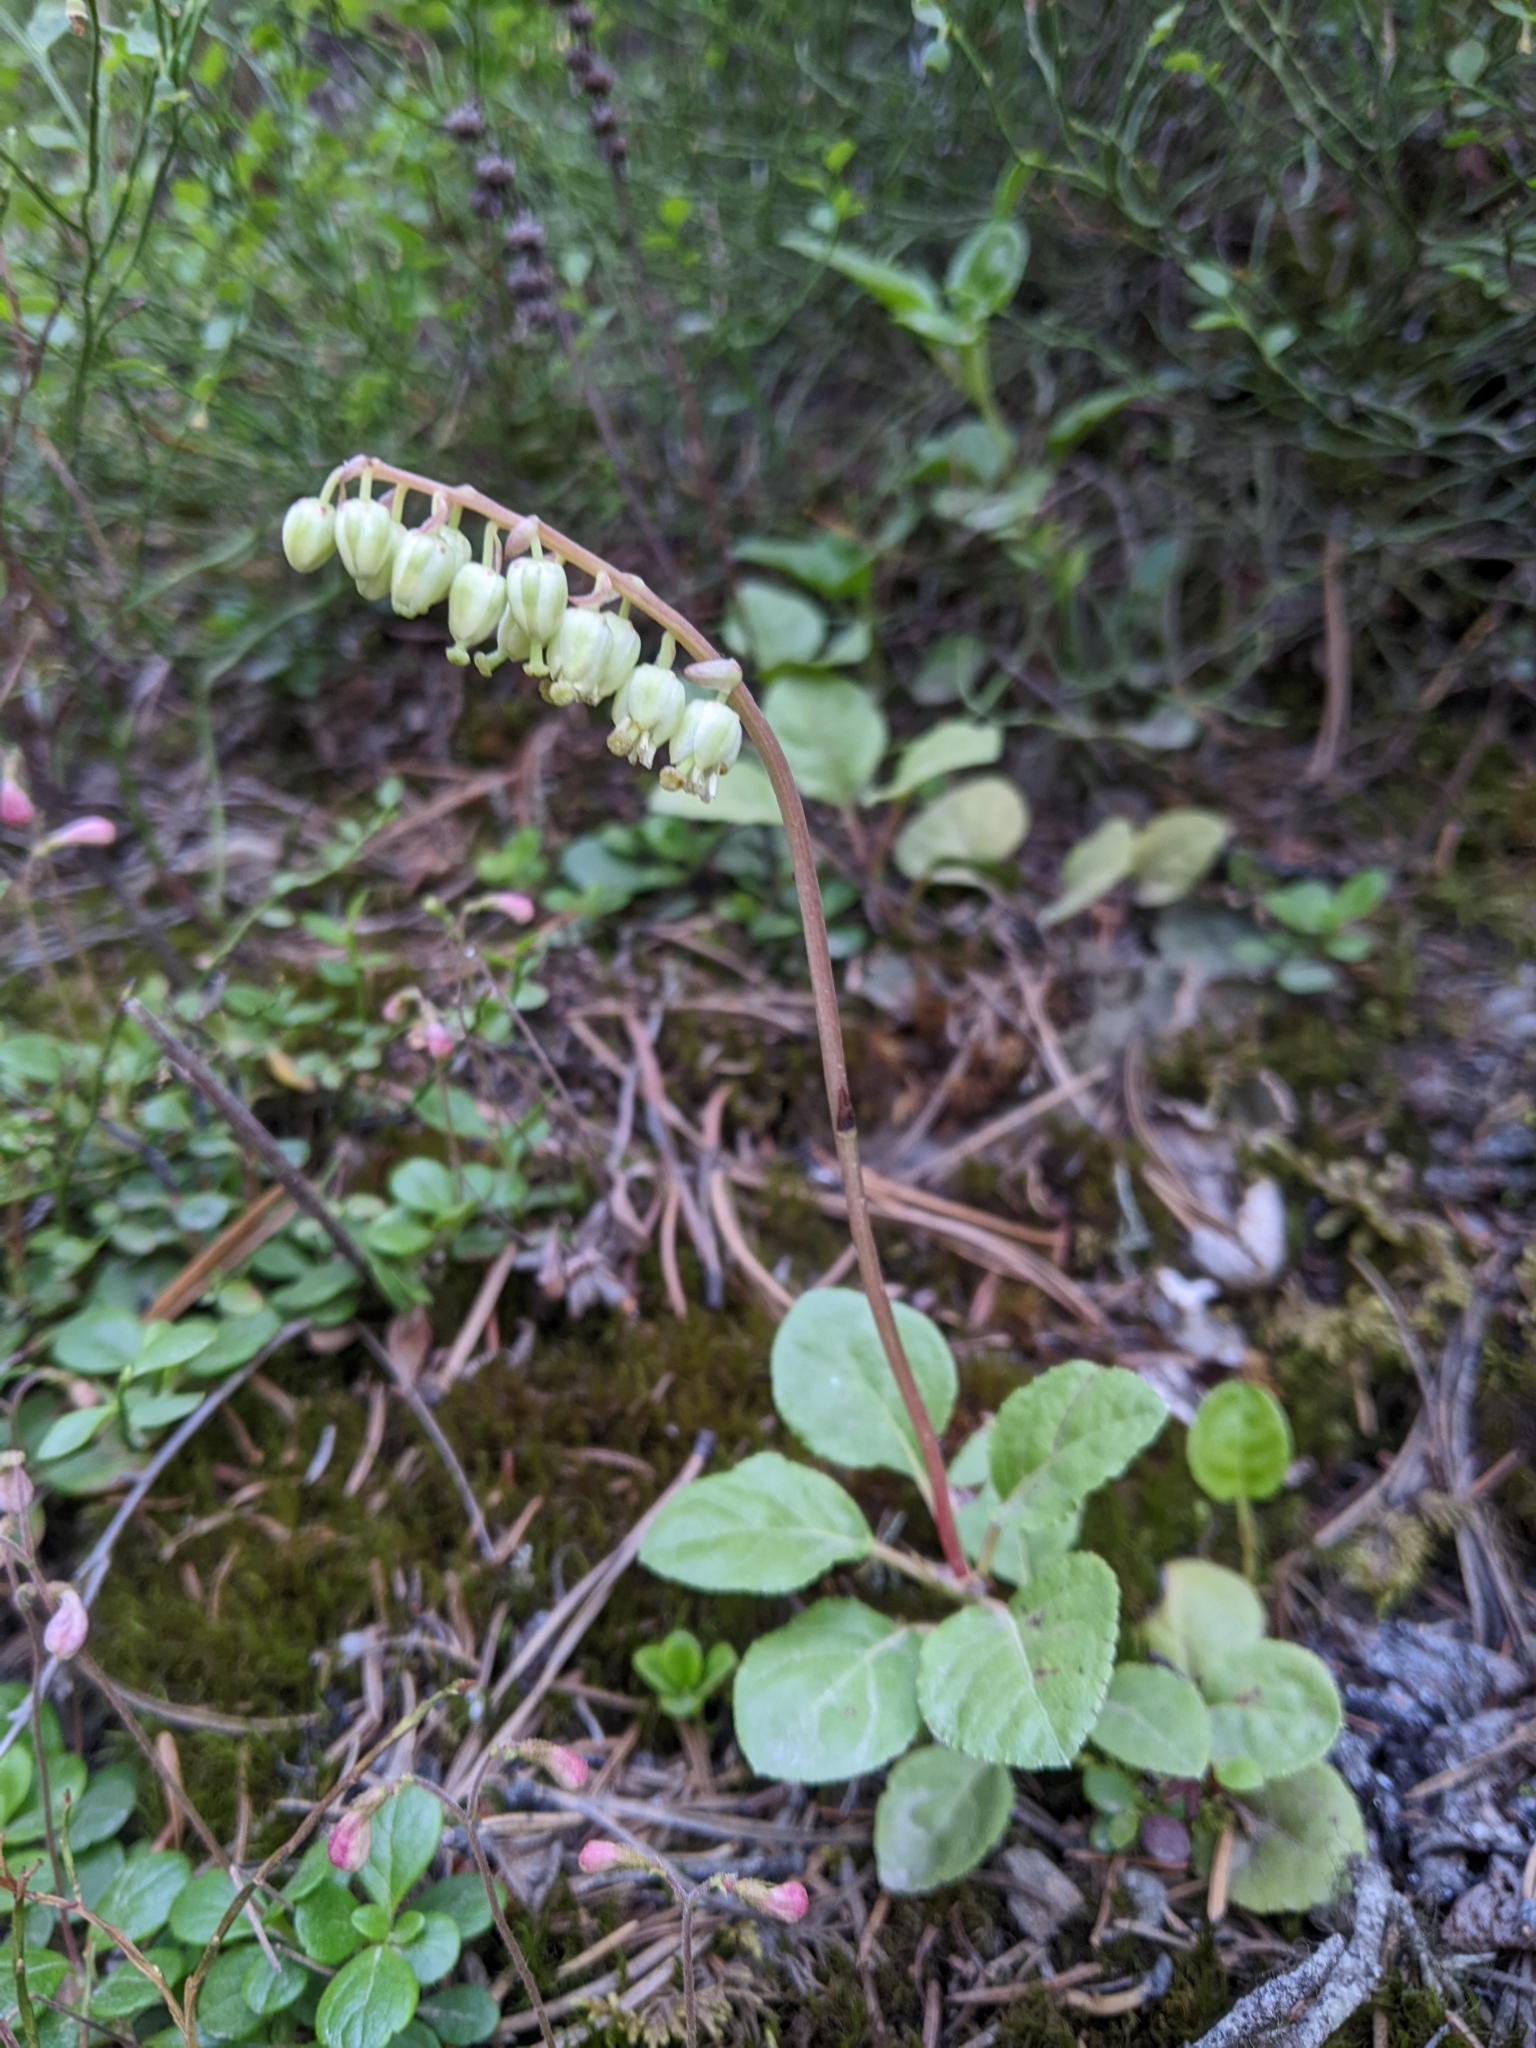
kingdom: Plantae
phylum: Tracheophyta
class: Magnoliopsida
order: Ericales
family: Ericaceae
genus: Orthilia
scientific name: Orthilia secunda
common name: One-sided orthilia
